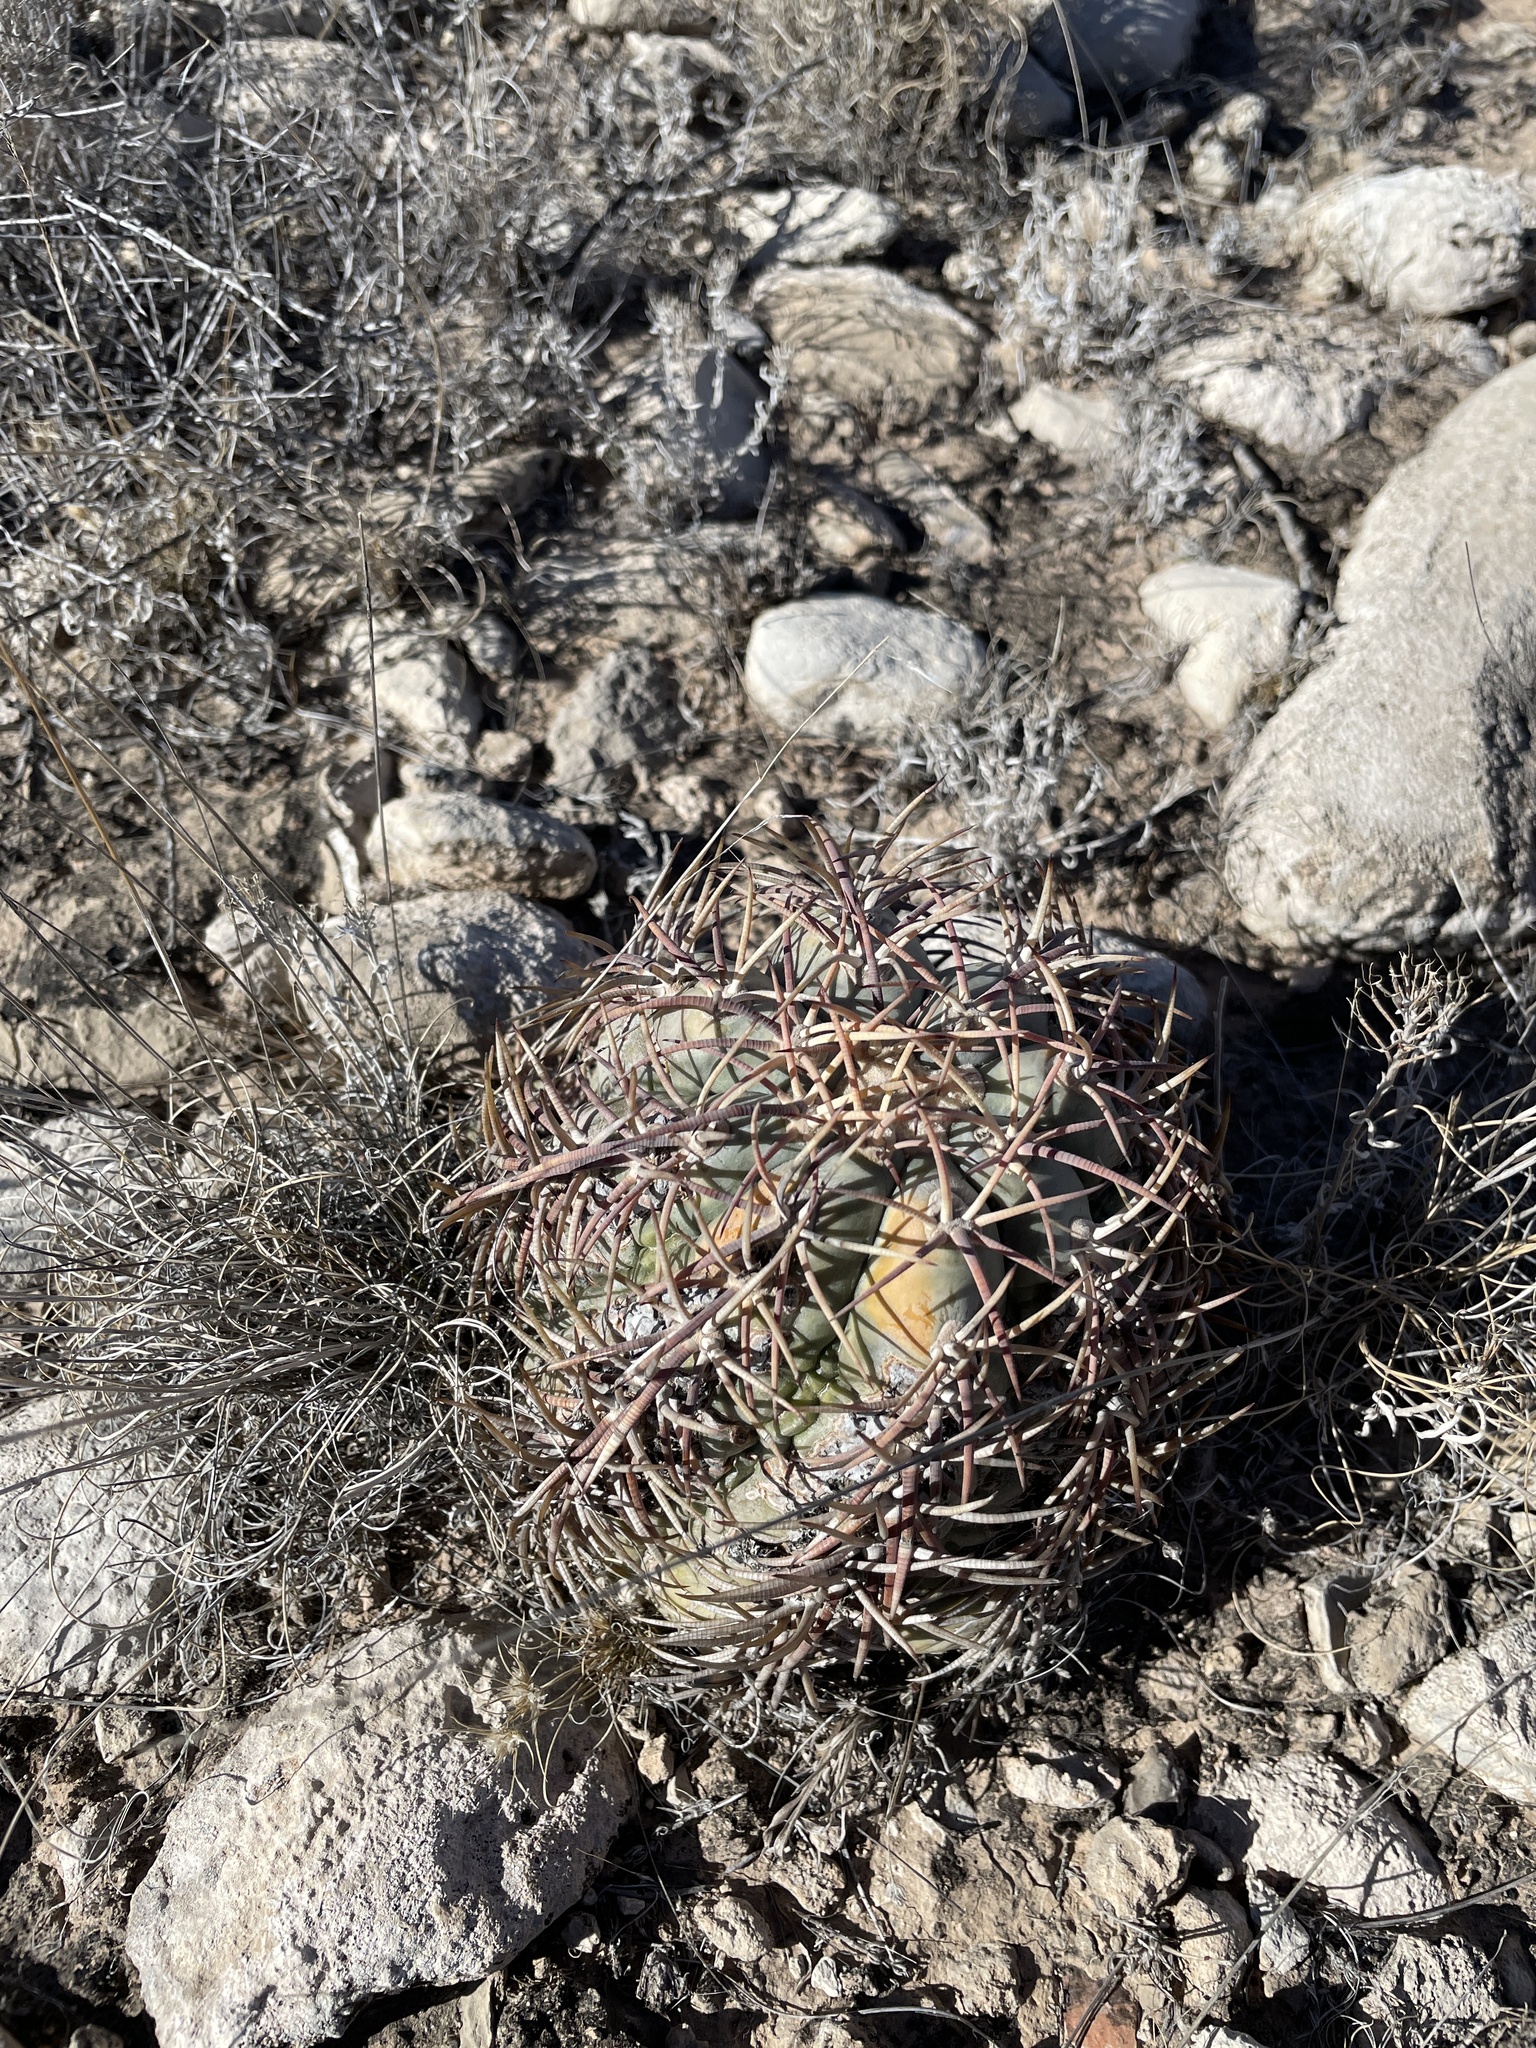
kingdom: Plantae
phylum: Tracheophyta
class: Magnoliopsida
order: Caryophyllales
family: Cactaceae
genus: Echinocactus
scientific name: Echinocactus horizonthalonius
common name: Devilshead
